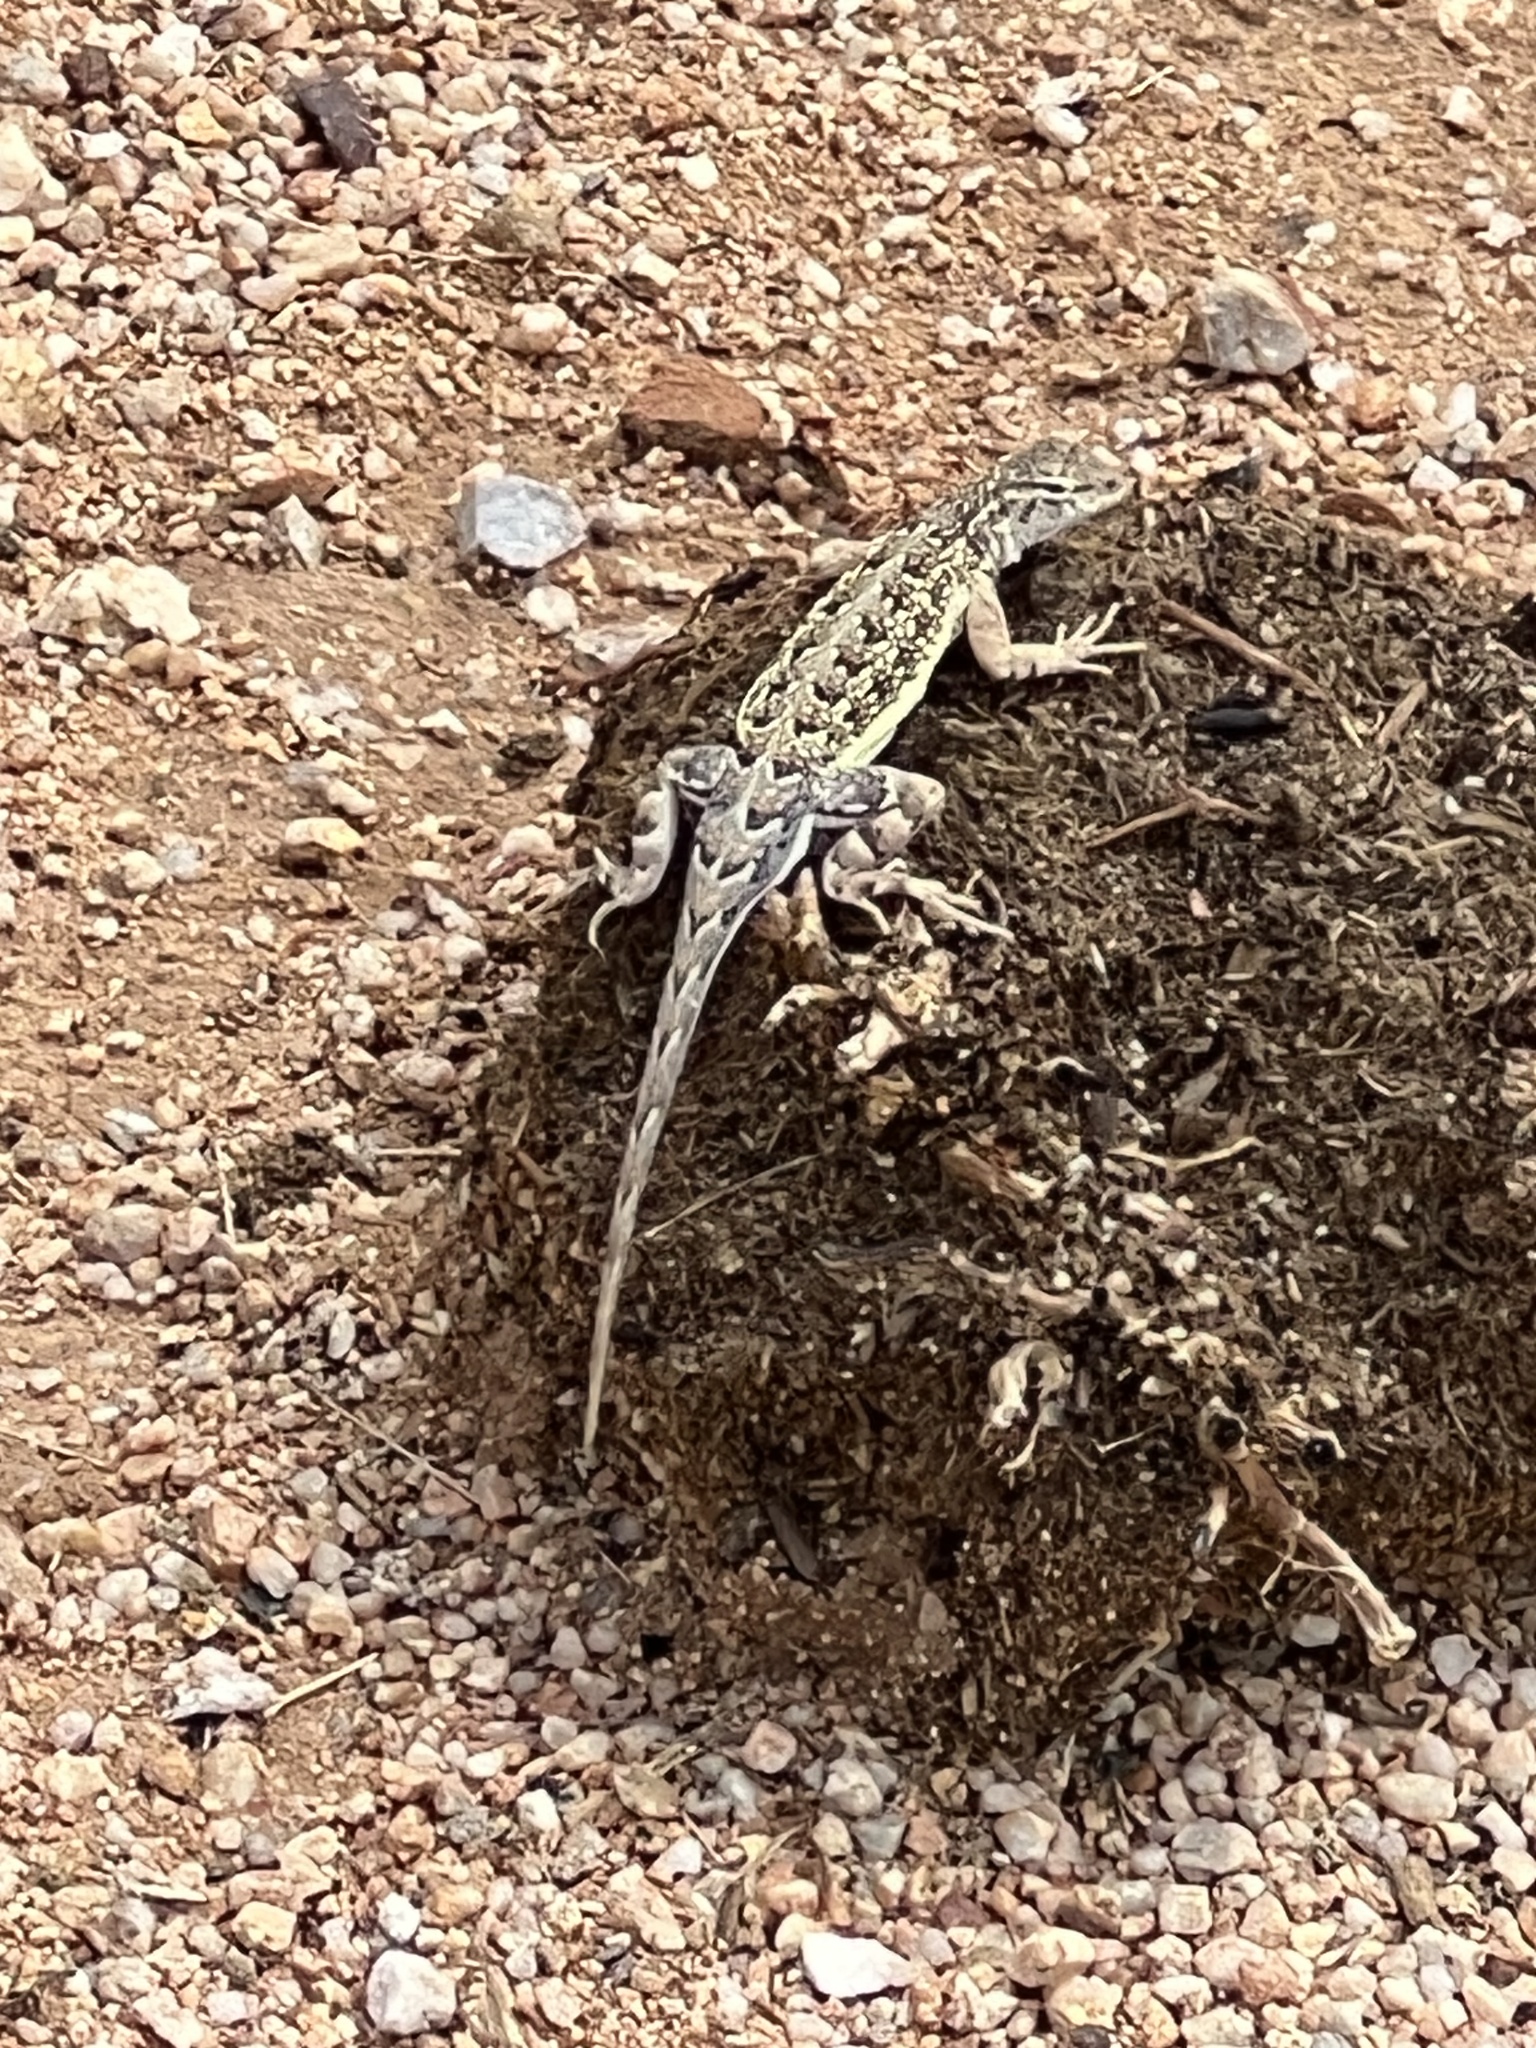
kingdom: Animalia
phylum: Chordata
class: Squamata
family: Phrynosomatidae
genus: Holbrookia
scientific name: Holbrookia elegans
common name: Elegant earless lizard
